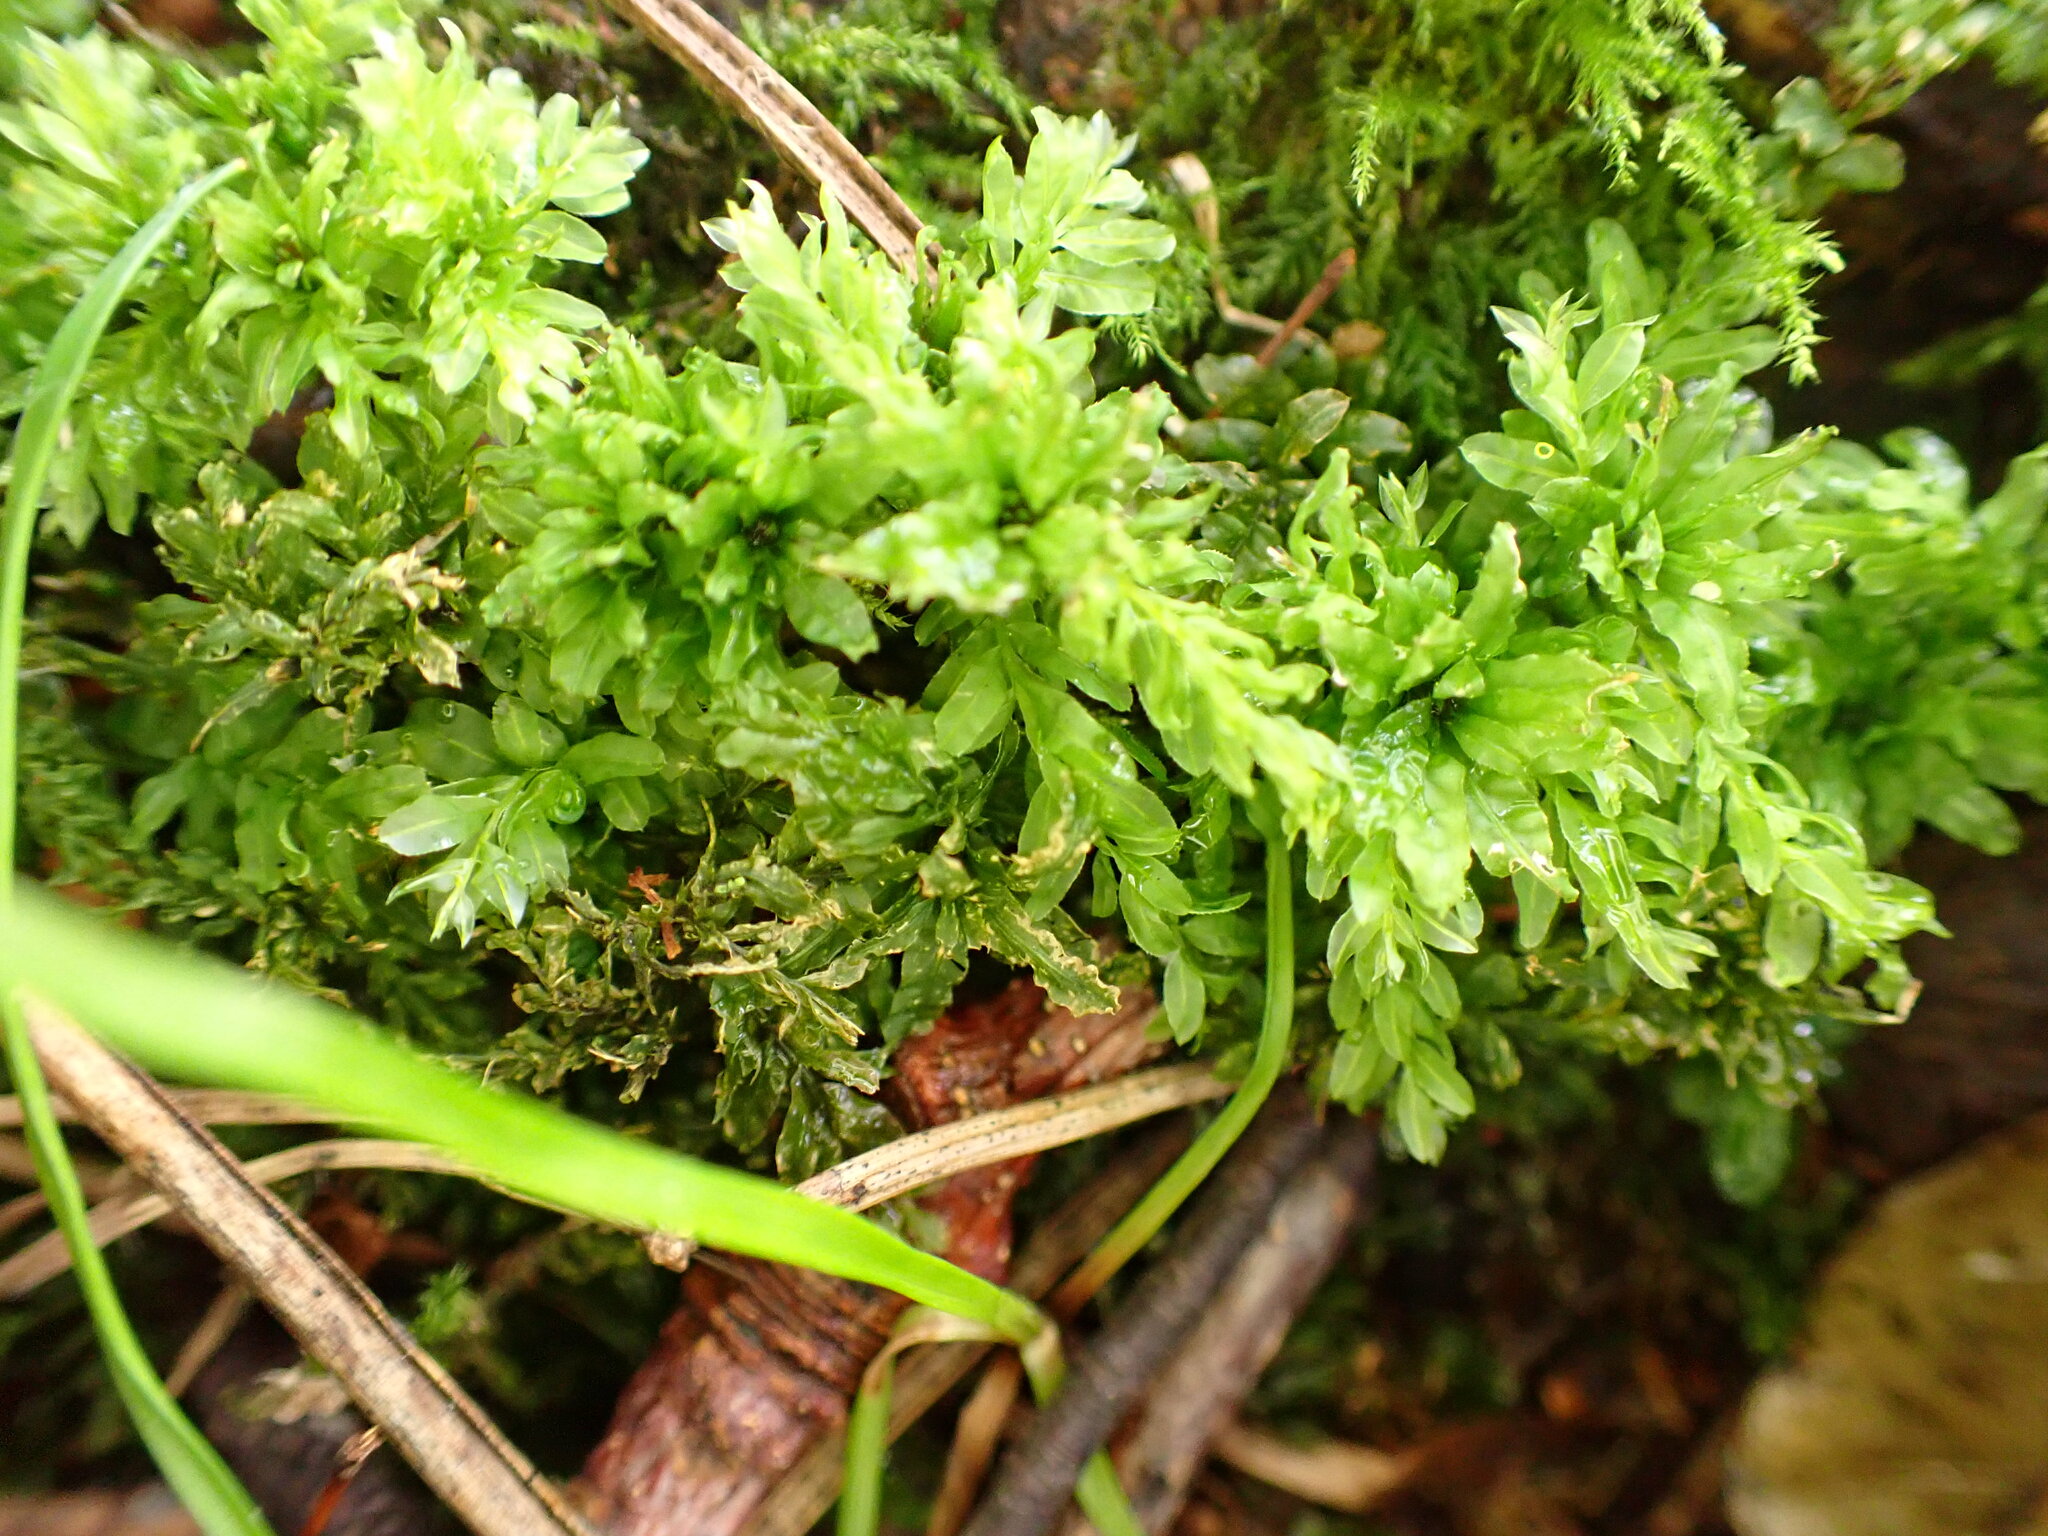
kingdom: Plantae
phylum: Bryophyta
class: Bryopsida
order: Bryales
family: Mniaceae
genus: Plagiomnium
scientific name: Plagiomnium undulatum
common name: Hart's-tongue thyme-moss
